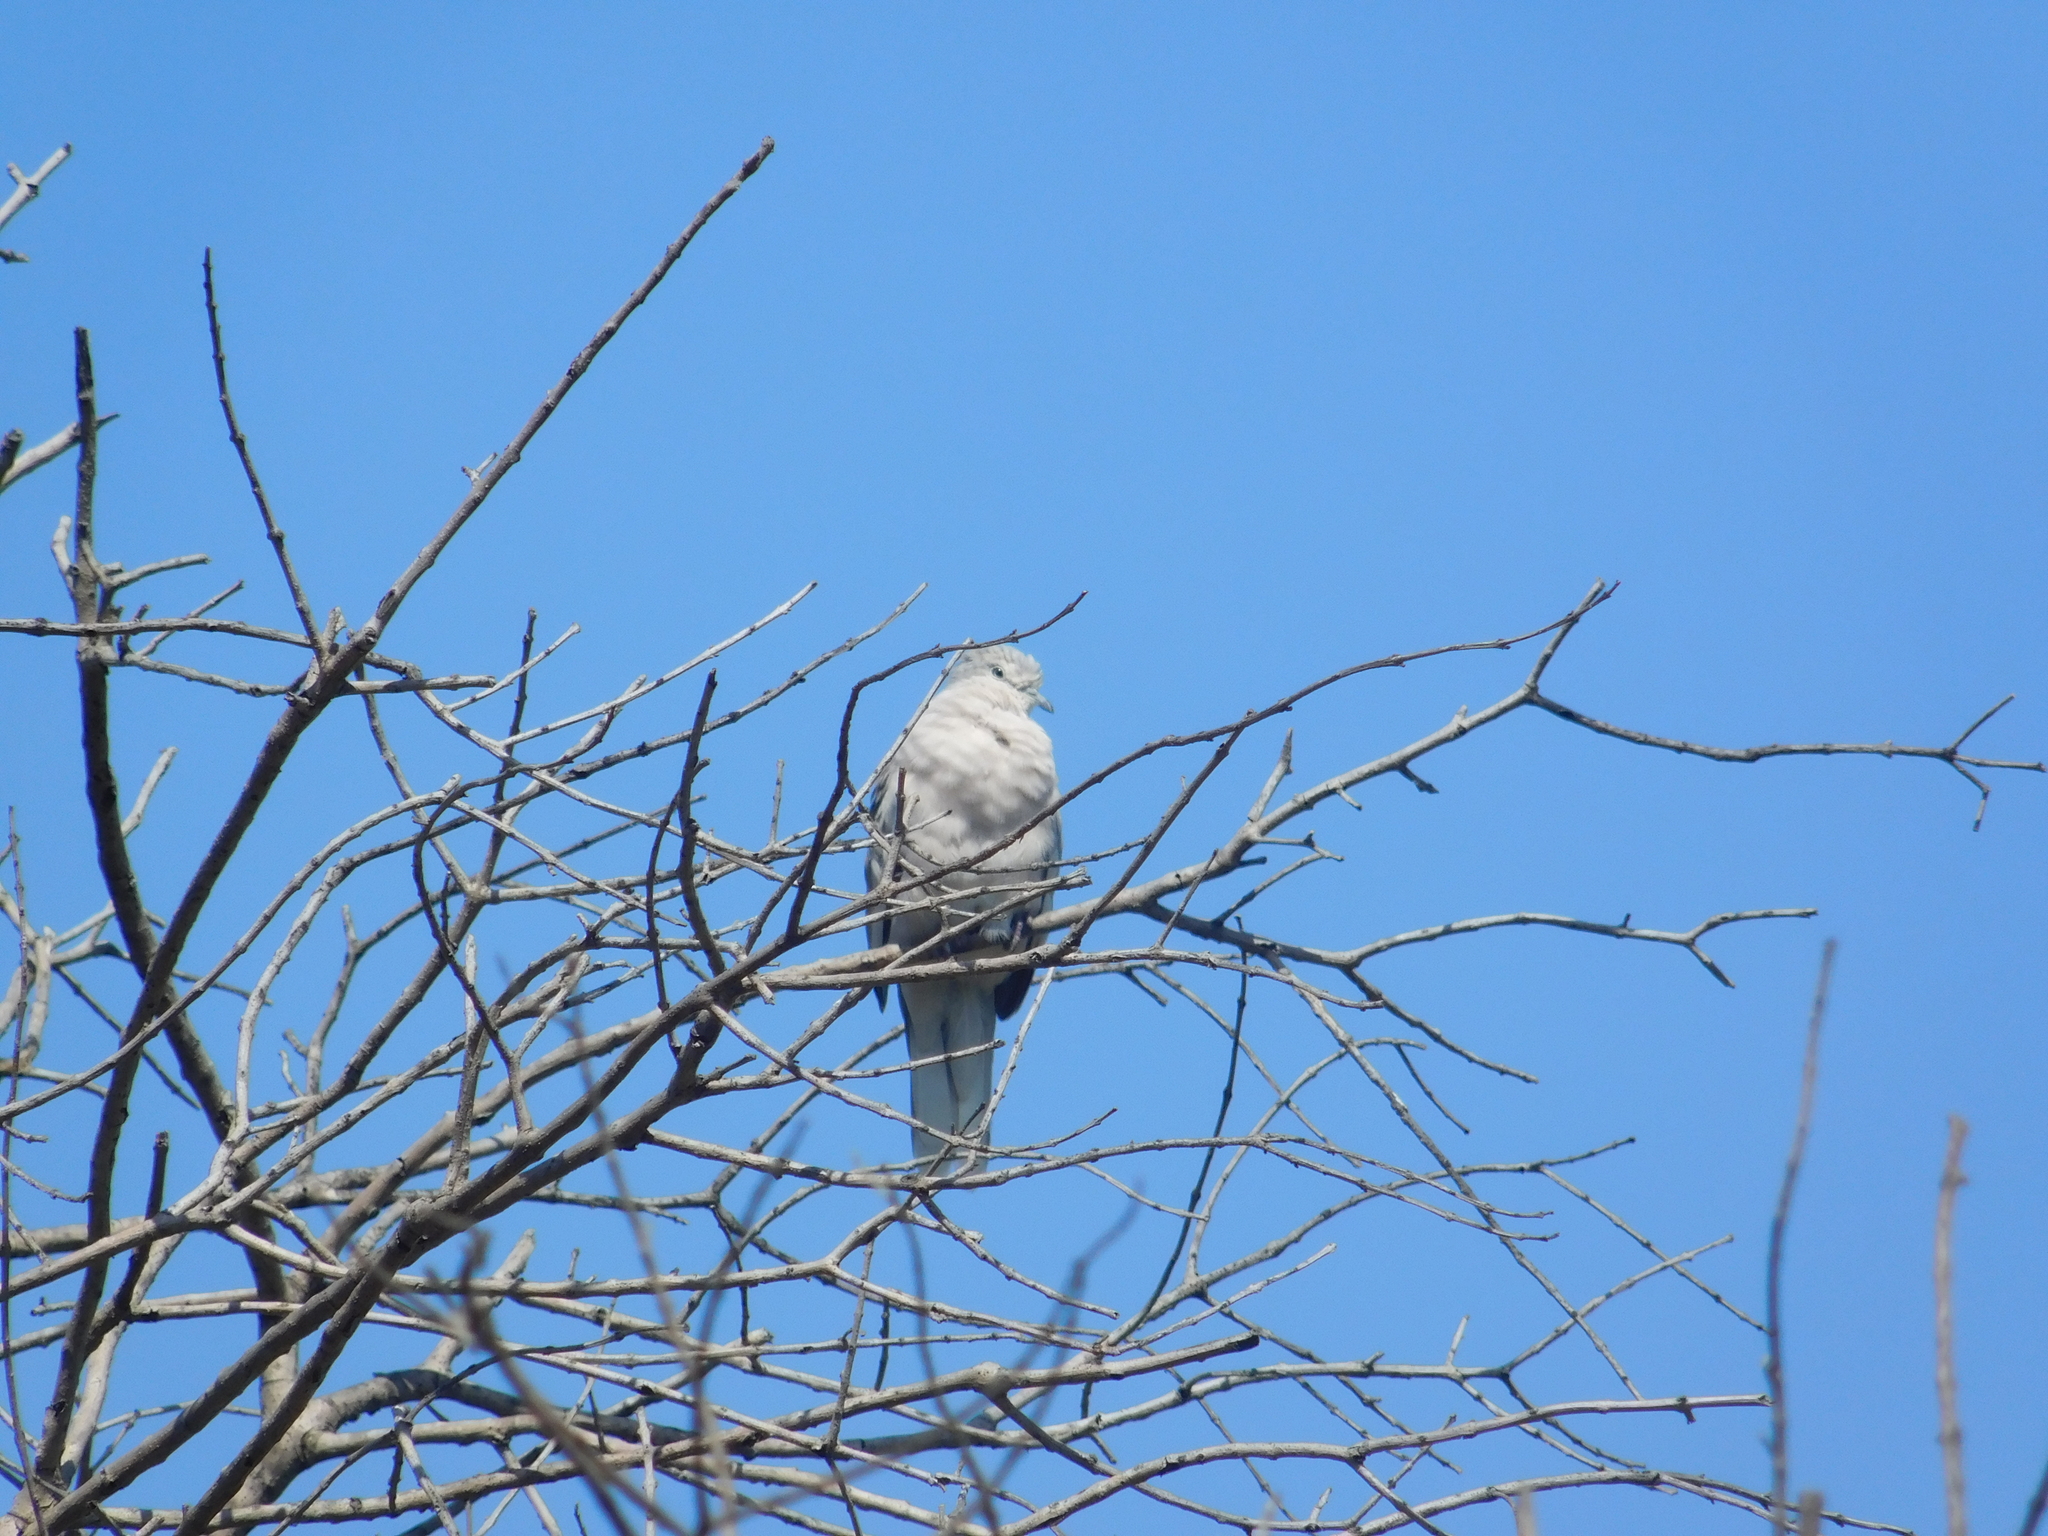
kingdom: Animalia
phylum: Chordata
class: Aves
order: Columbiformes
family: Columbidae
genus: Columbina
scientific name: Columbina picui
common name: Picui ground dove
